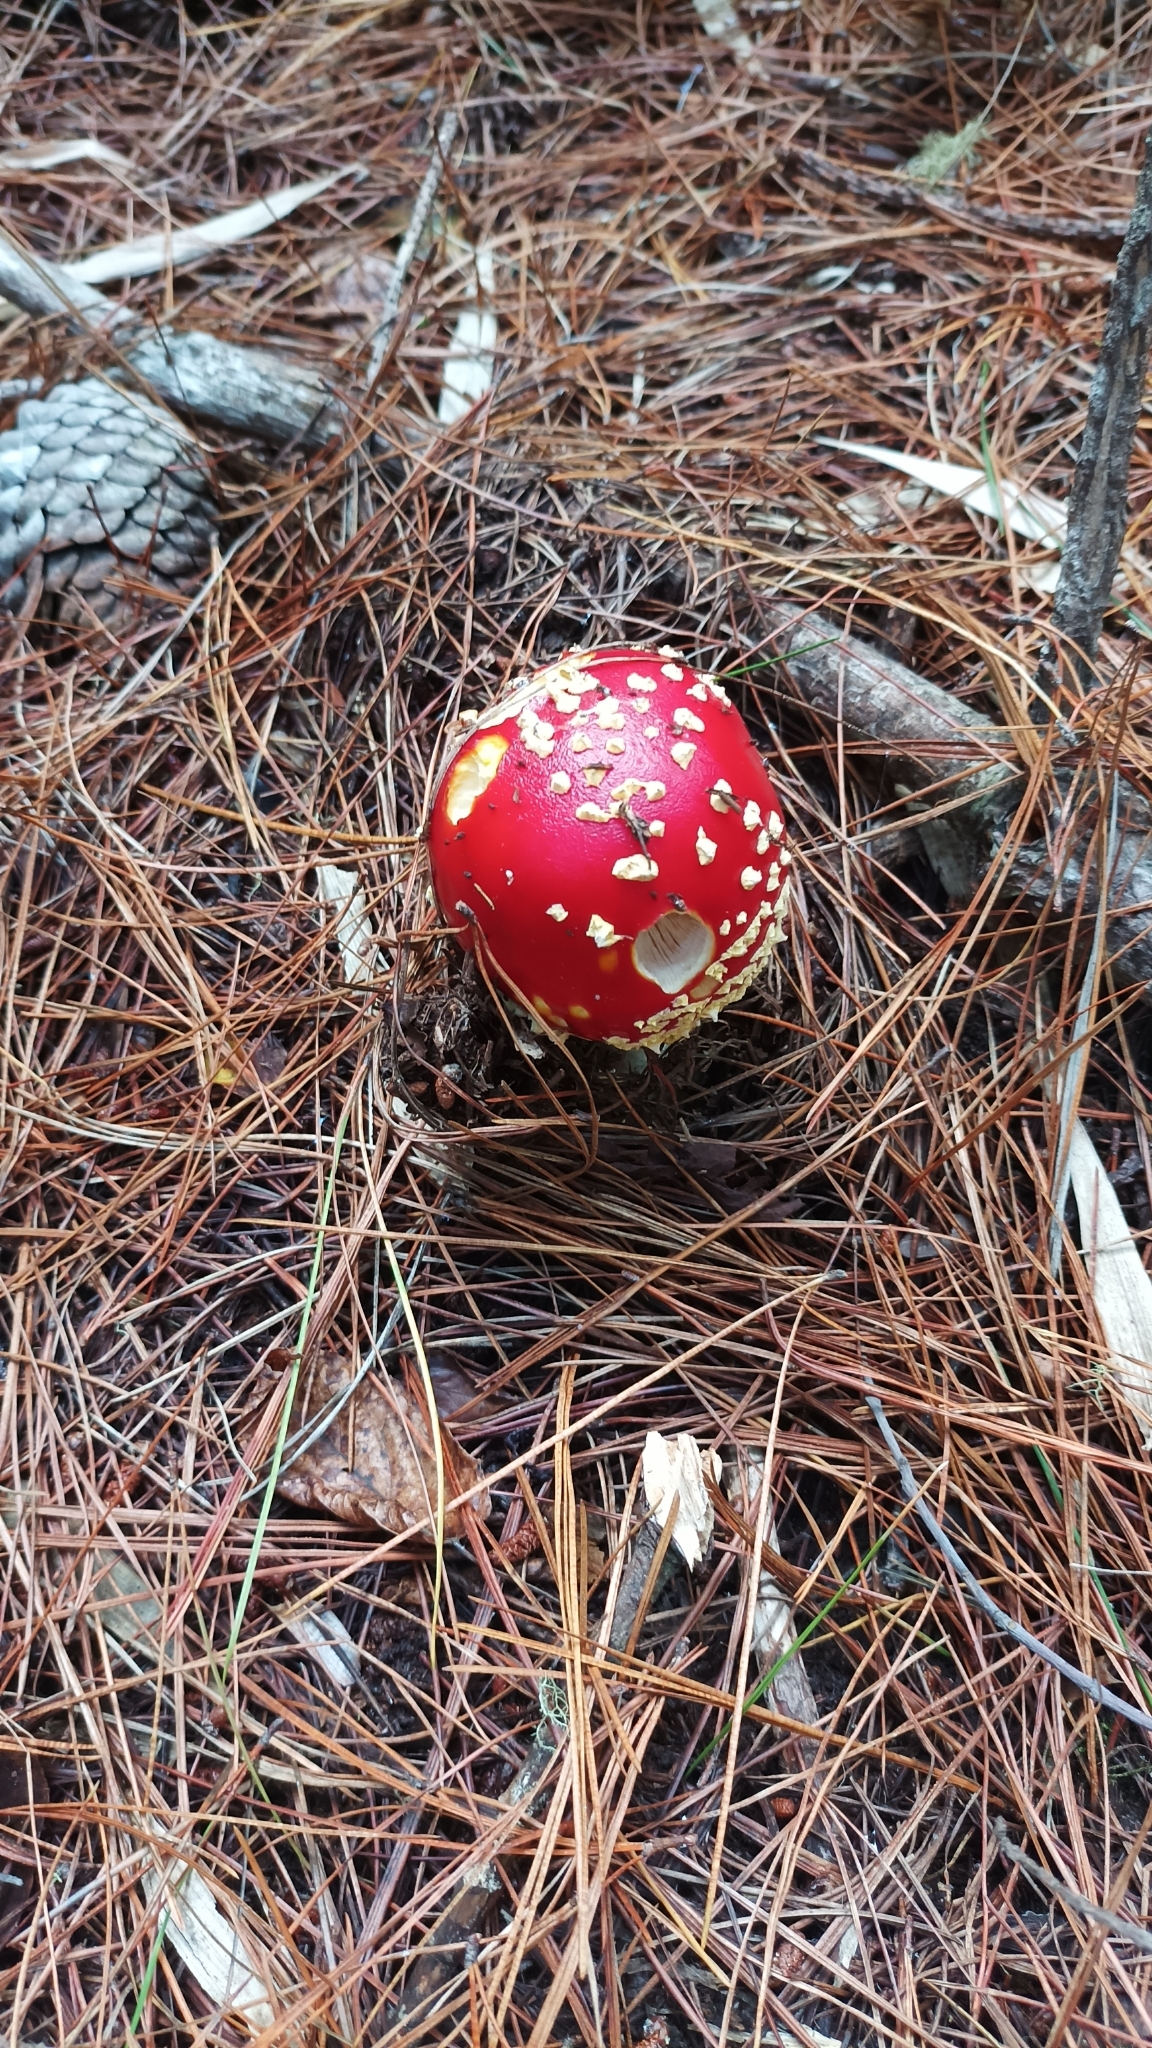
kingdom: Fungi
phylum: Basidiomycota
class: Agaricomycetes
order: Agaricales
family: Amanitaceae
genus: Amanita
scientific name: Amanita muscaria
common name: Fly agaric
